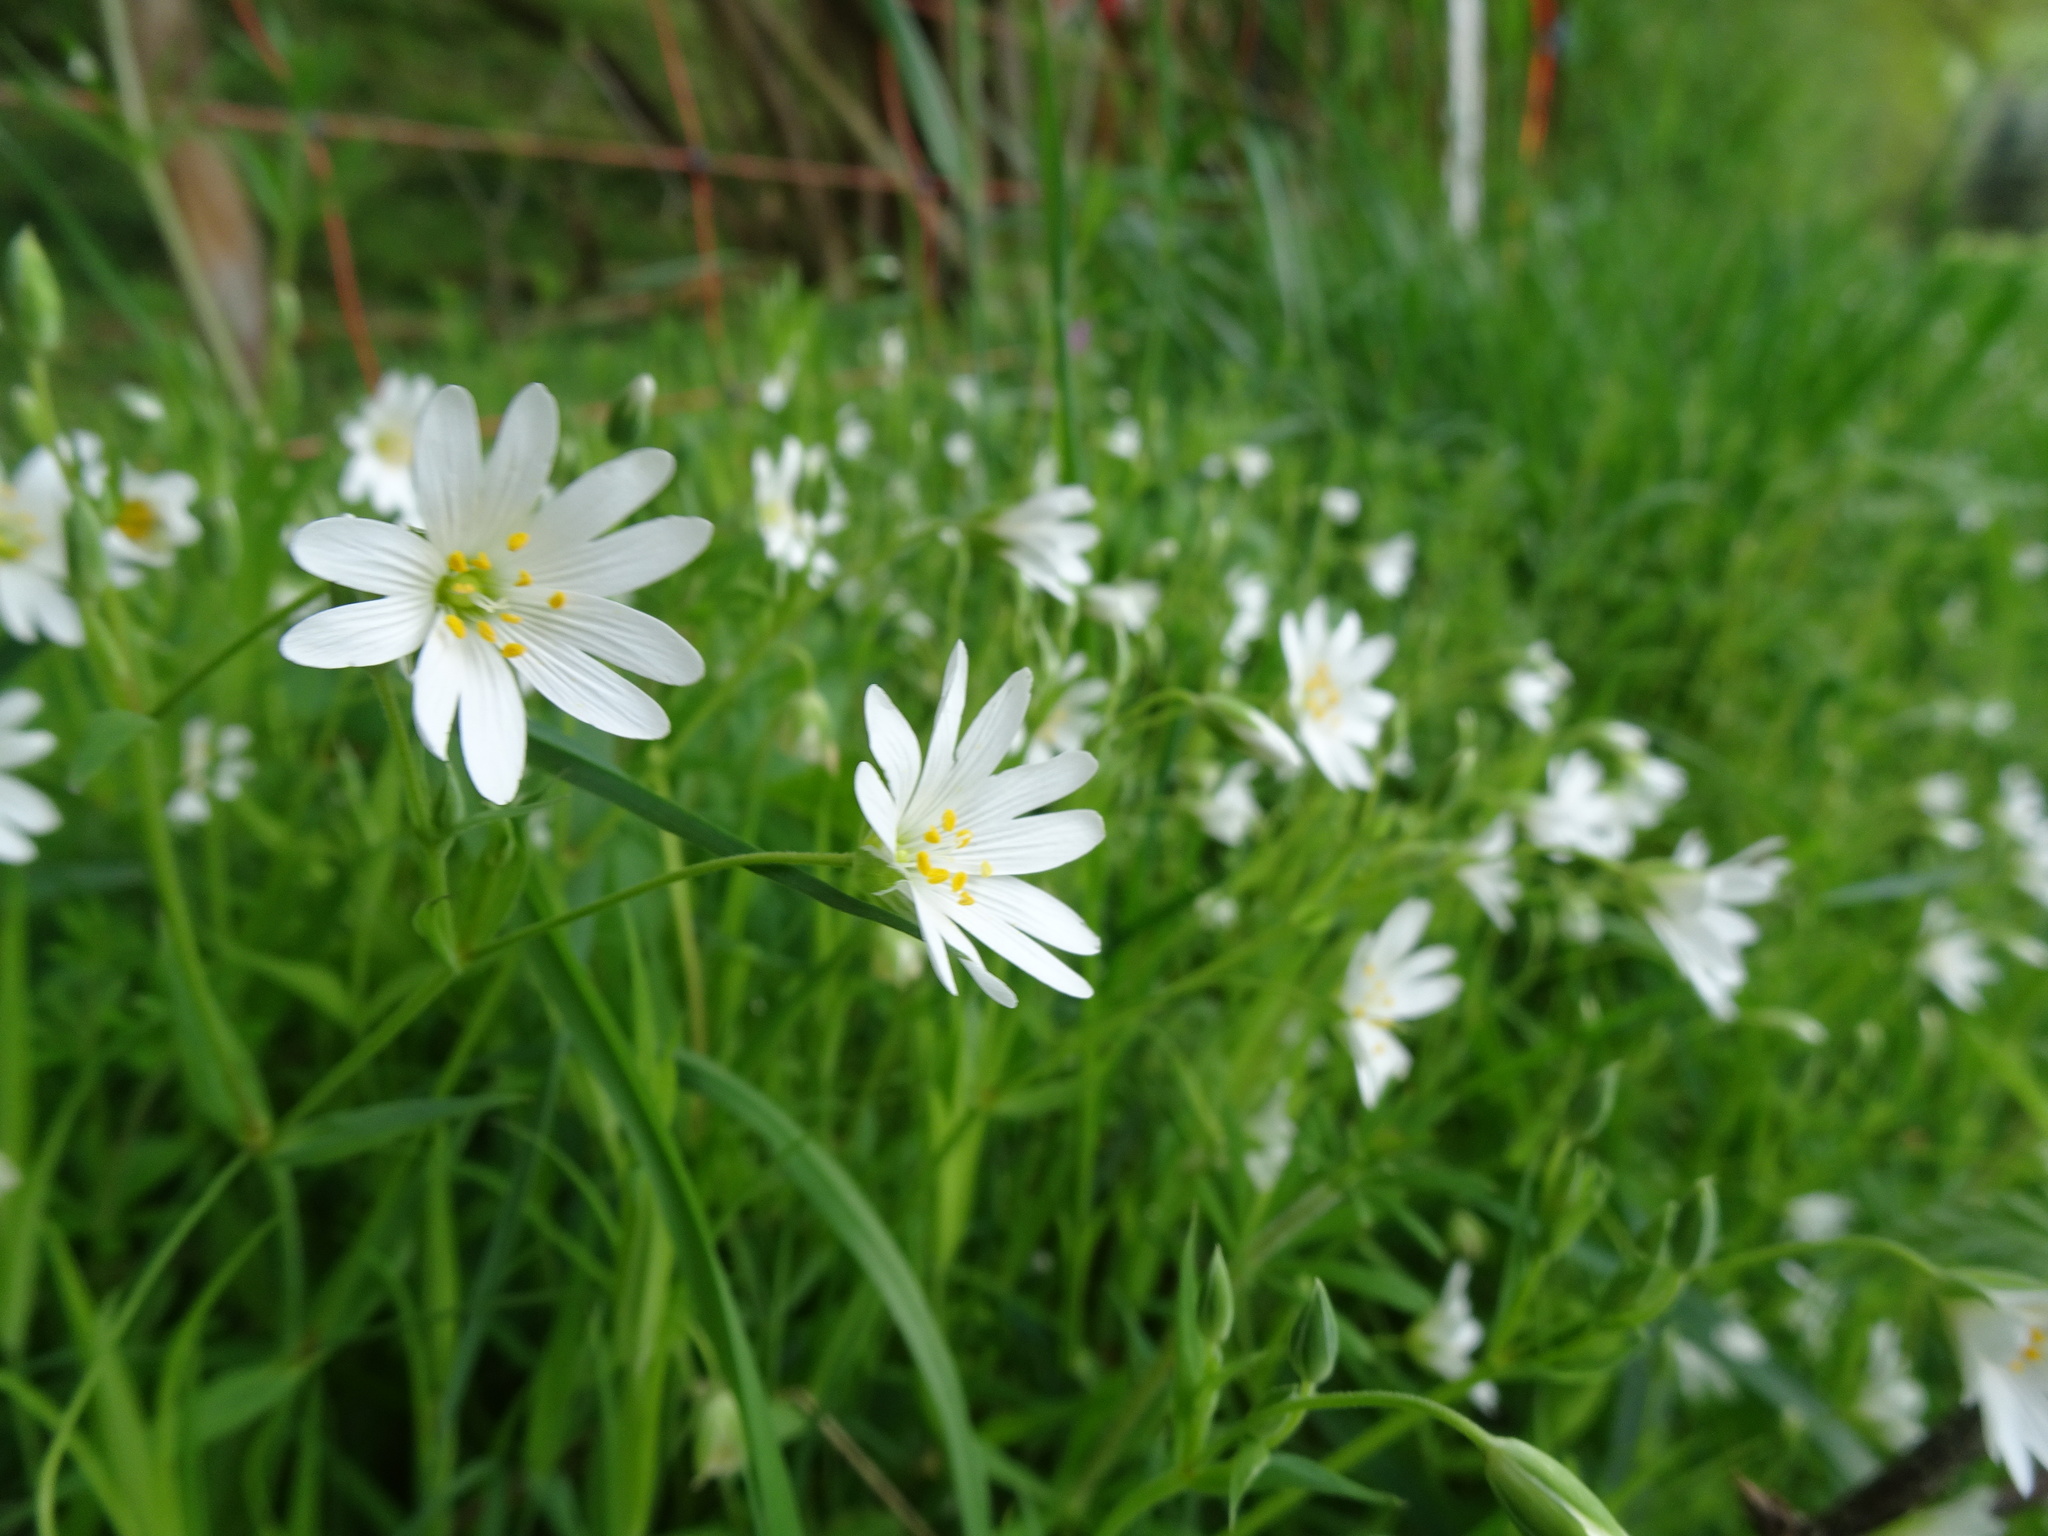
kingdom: Plantae
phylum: Tracheophyta
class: Magnoliopsida
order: Caryophyllales
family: Caryophyllaceae
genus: Rabelera
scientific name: Rabelera holostea
